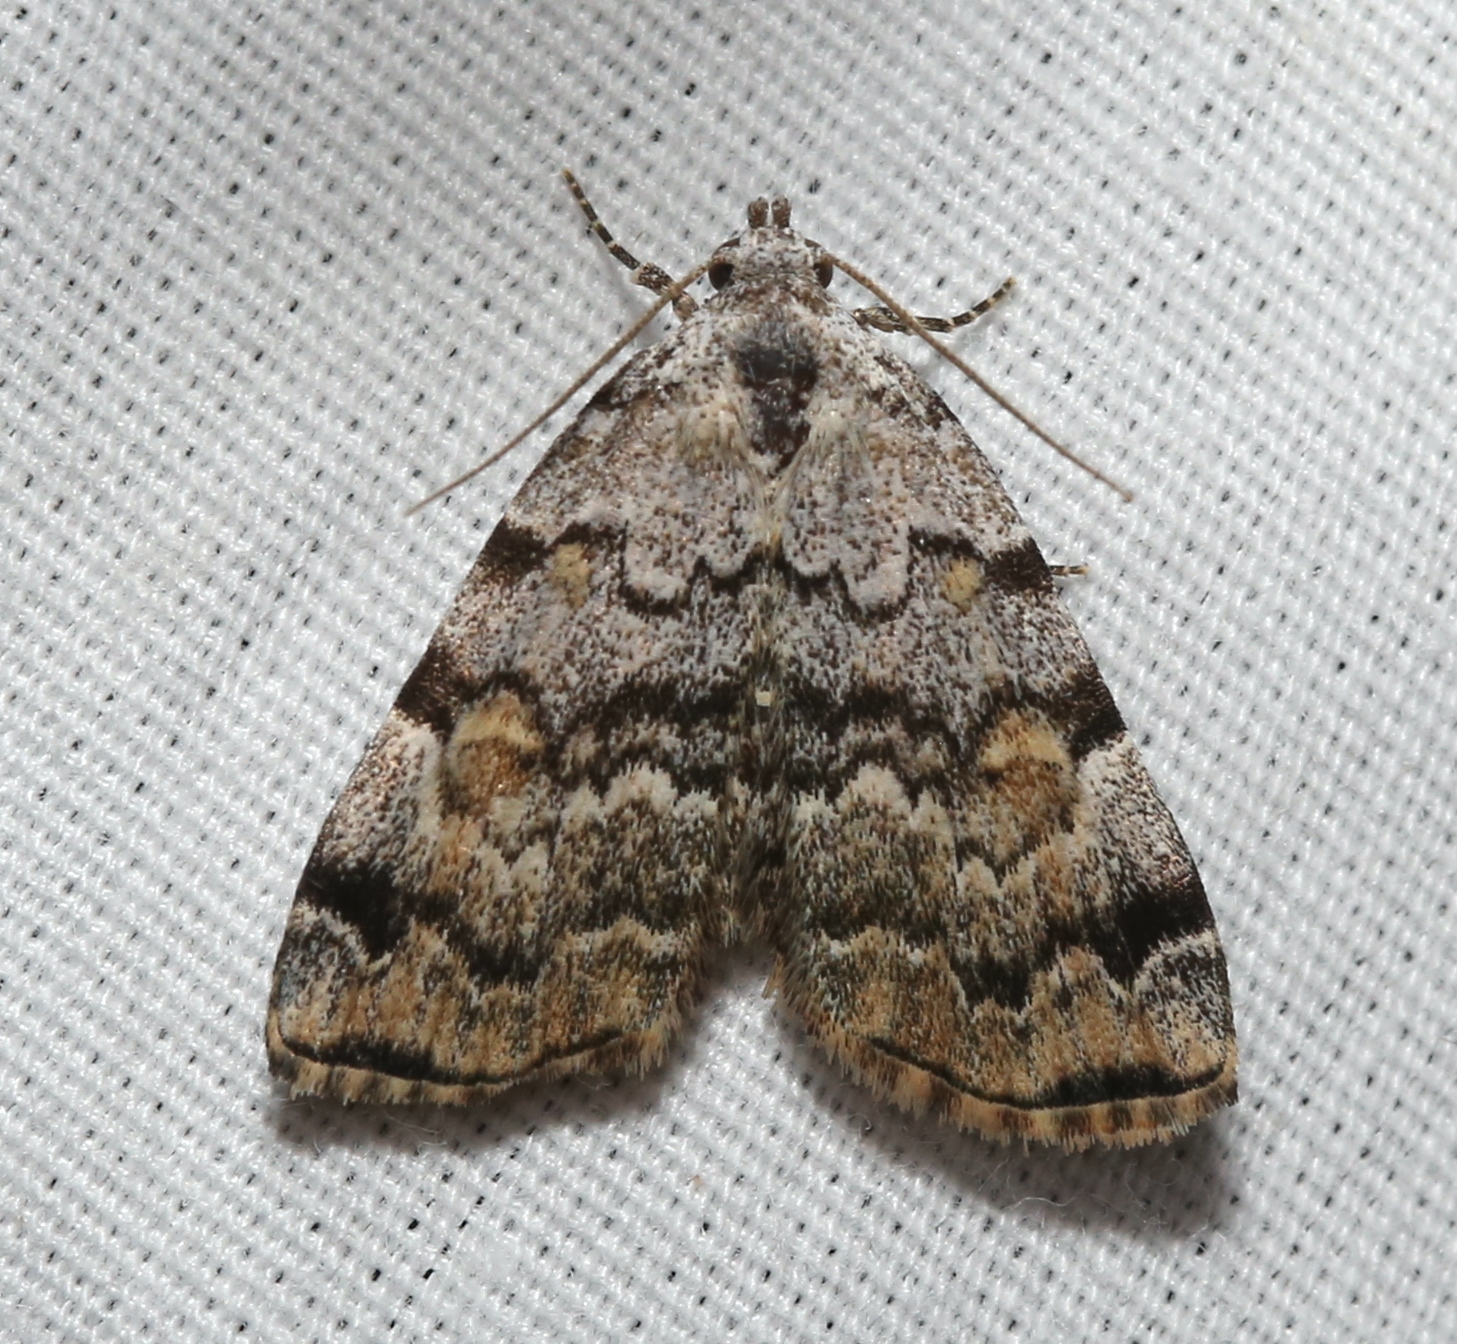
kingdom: Animalia
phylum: Arthropoda
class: Insecta
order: Lepidoptera
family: Erebidae
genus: Idia
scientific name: Idia americalis
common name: American idia moth
